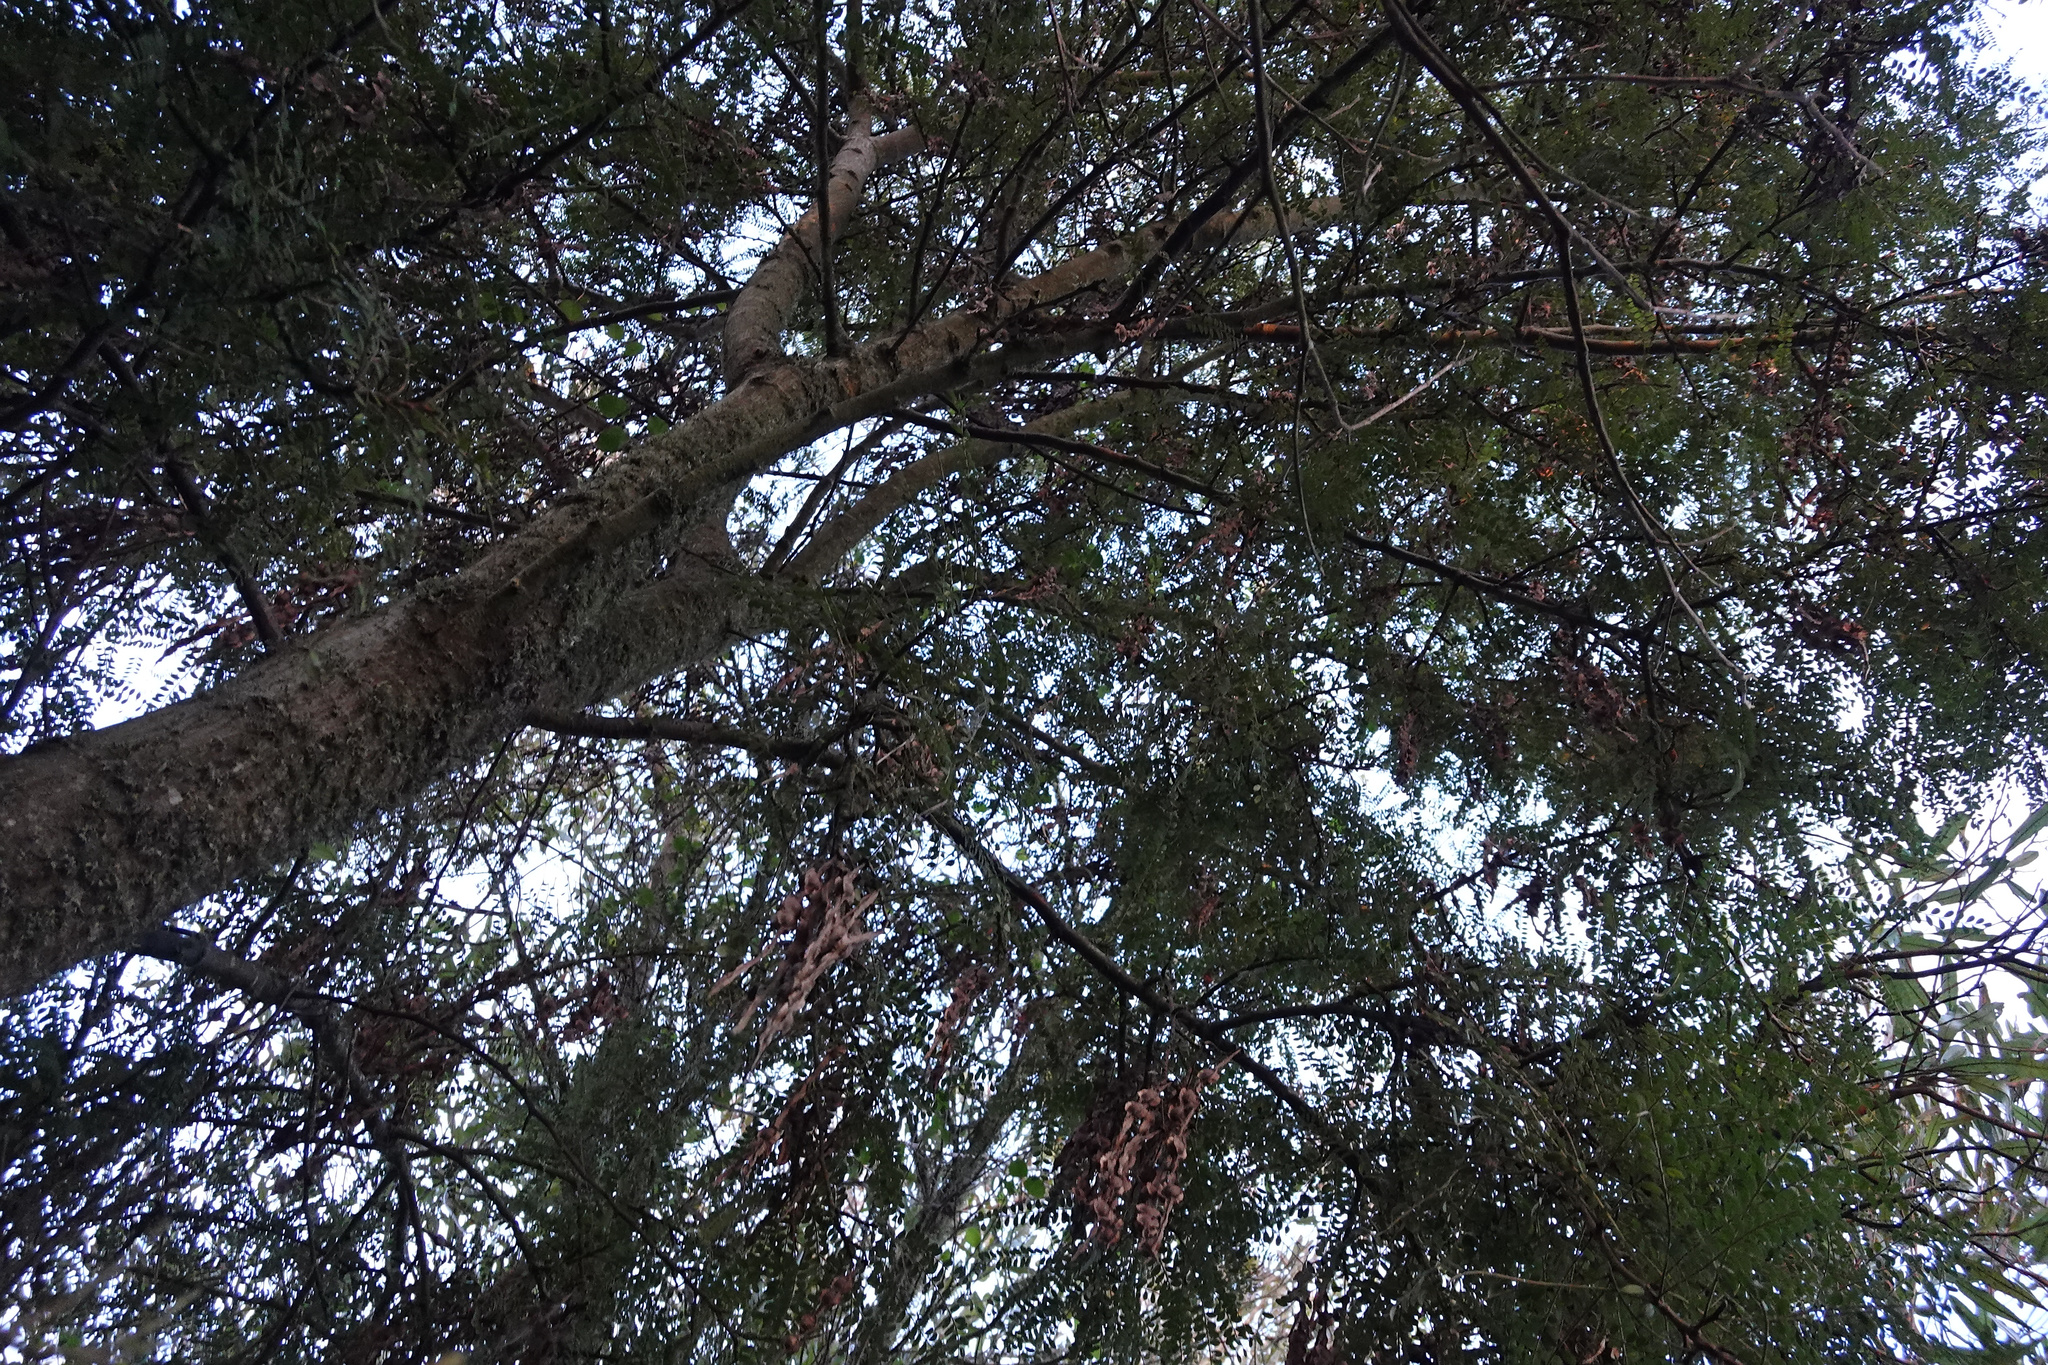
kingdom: Plantae
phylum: Tracheophyta
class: Magnoliopsida
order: Fabales
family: Fabaceae
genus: Sophora
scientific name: Sophora microphylla
